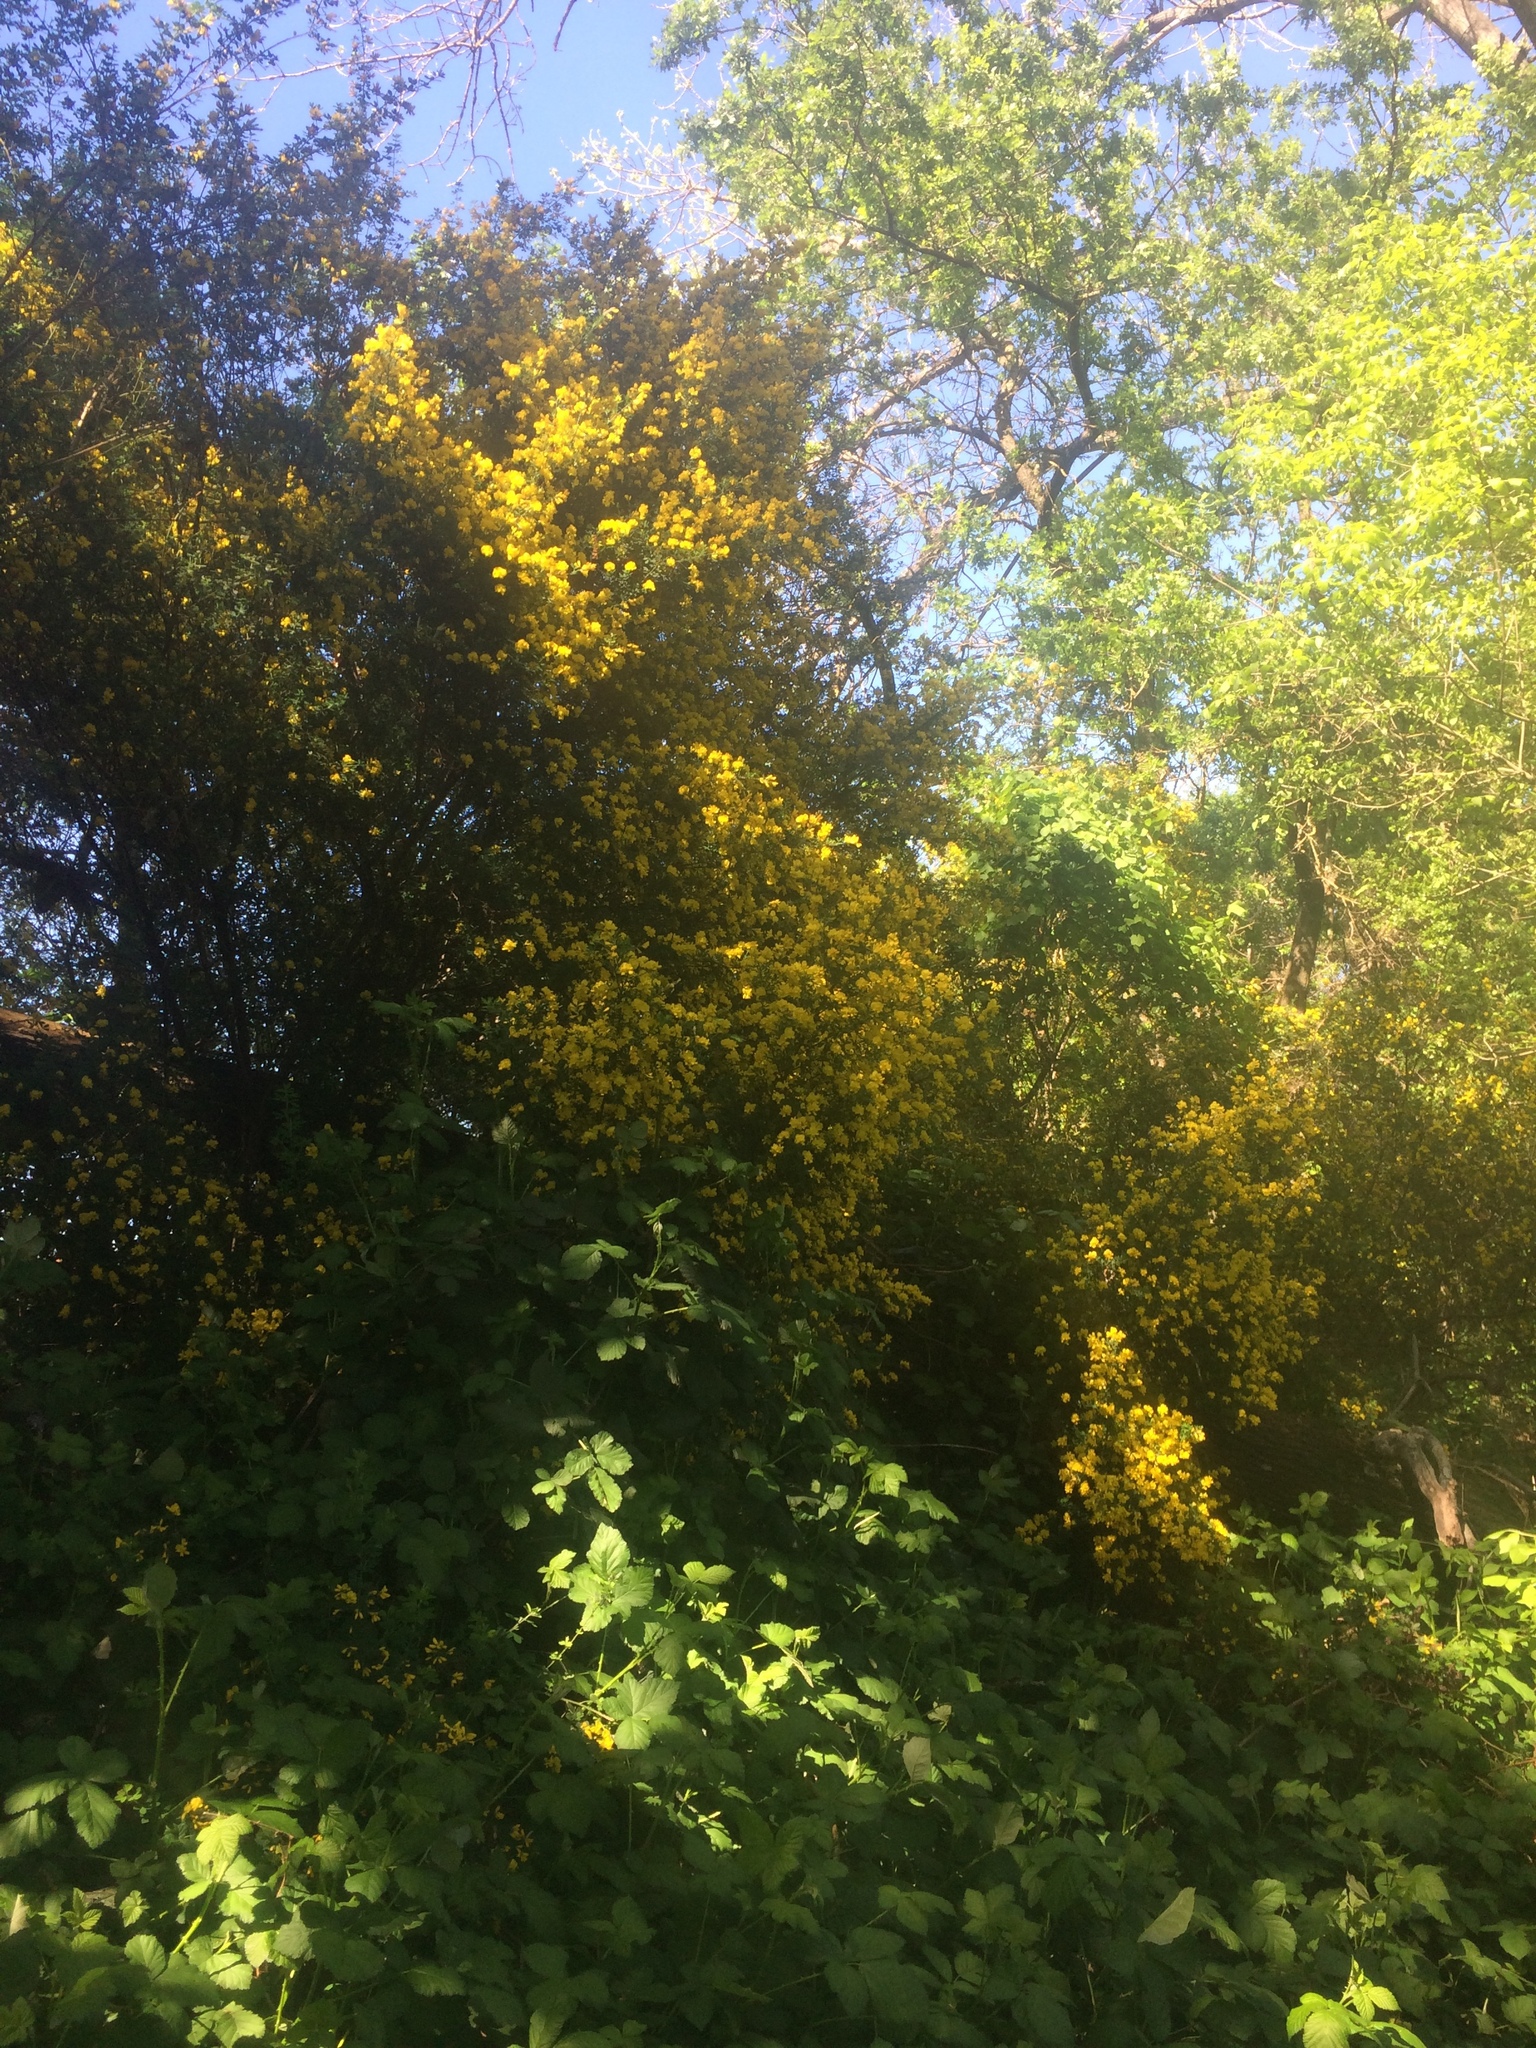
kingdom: Plantae
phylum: Tracheophyta
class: Magnoliopsida
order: Fabales
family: Fabaceae
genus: Genista
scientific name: Genista monspessulana
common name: Montpellier broom
